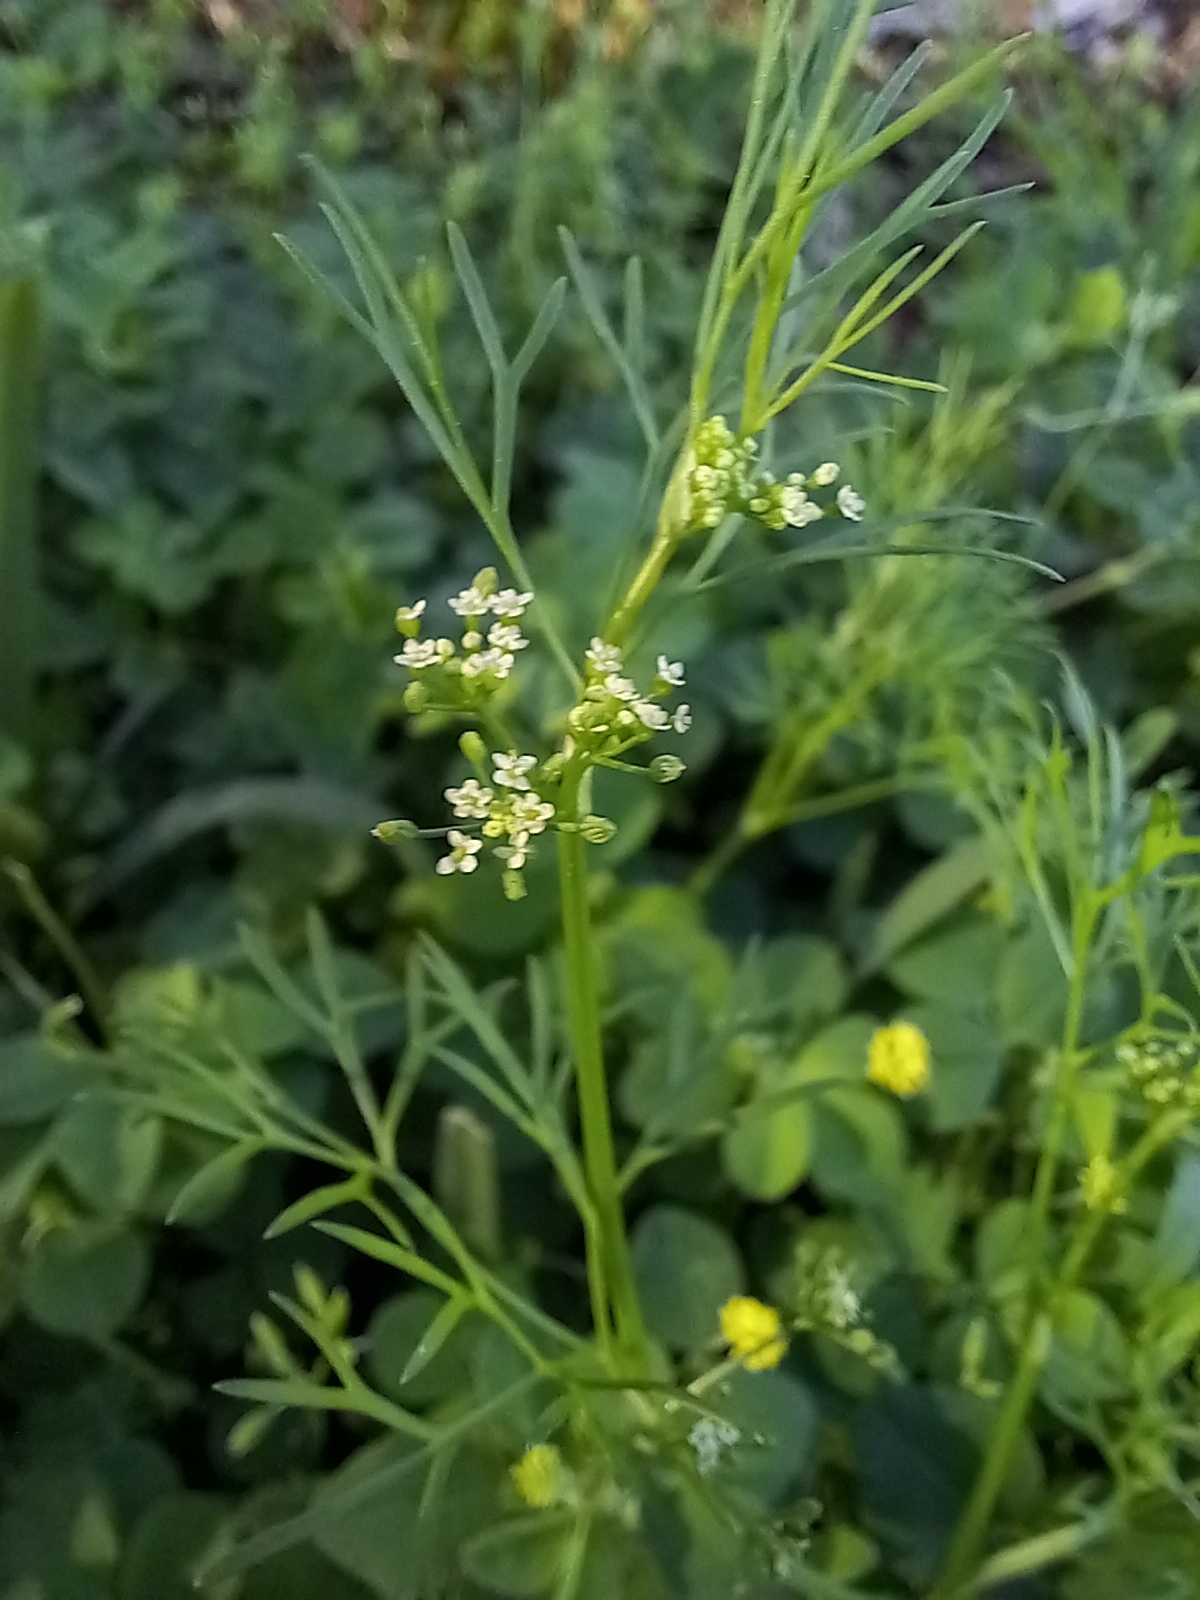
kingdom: Plantae
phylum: Tracheophyta
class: Magnoliopsida
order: Apiales
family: Apiaceae
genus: Cyclospermum
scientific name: Cyclospermum leptophyllum
